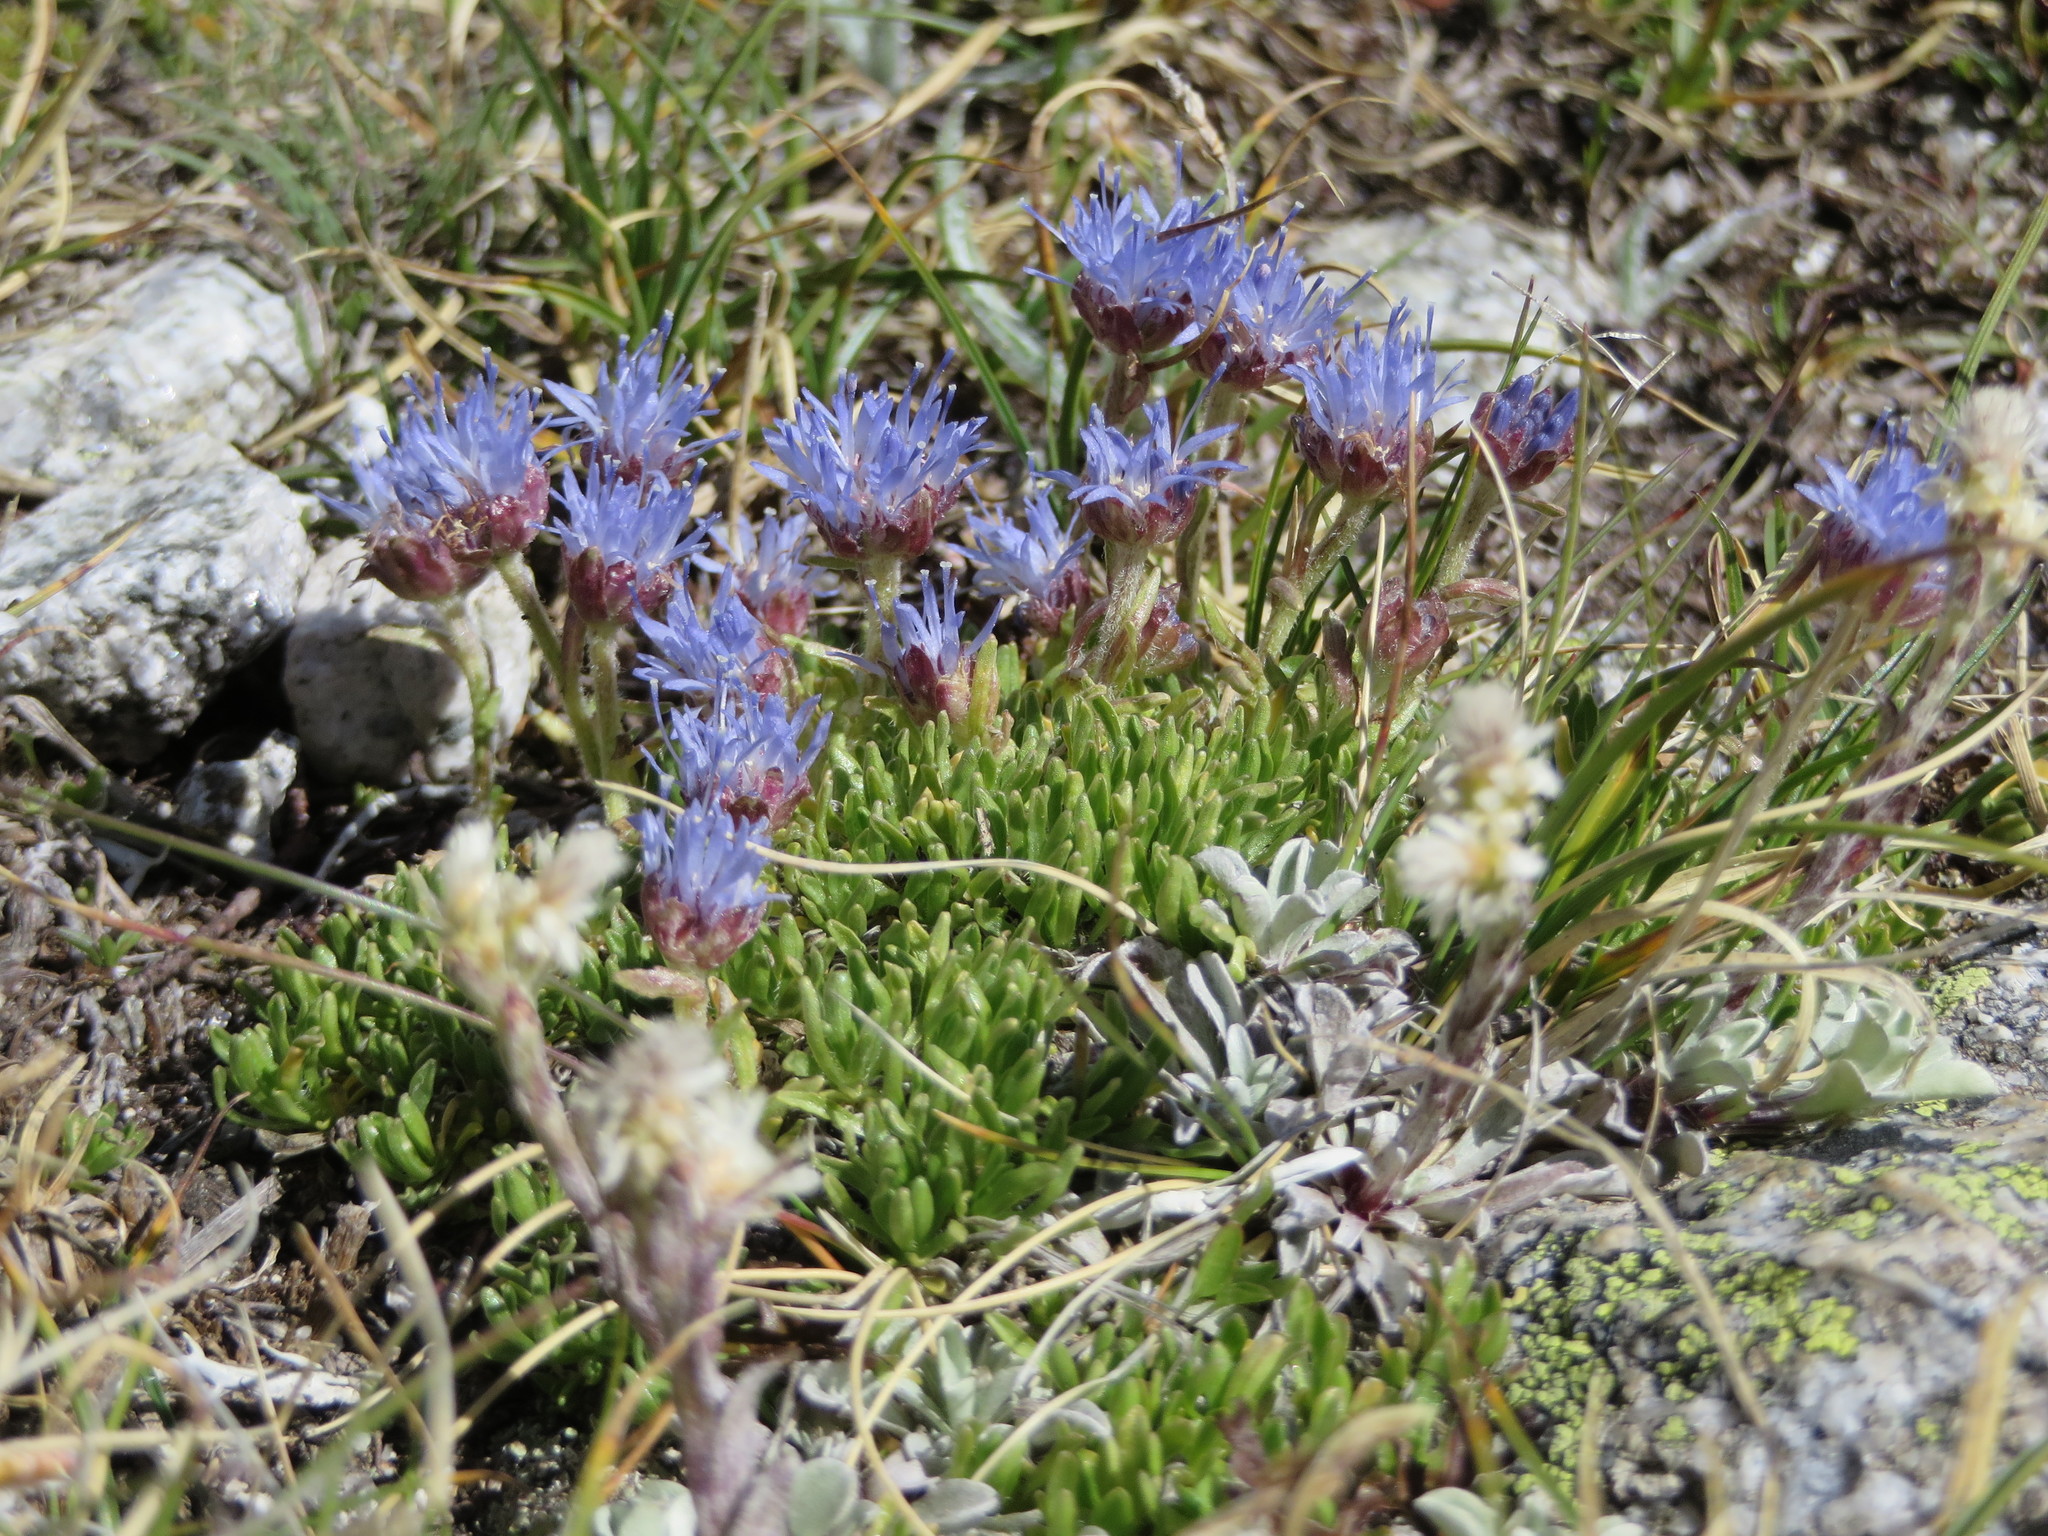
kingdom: Plantae
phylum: Tracheophyta
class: Magnoliopsida
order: Asterales
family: Campanulaceae
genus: Jasione
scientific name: Jasione crispa
